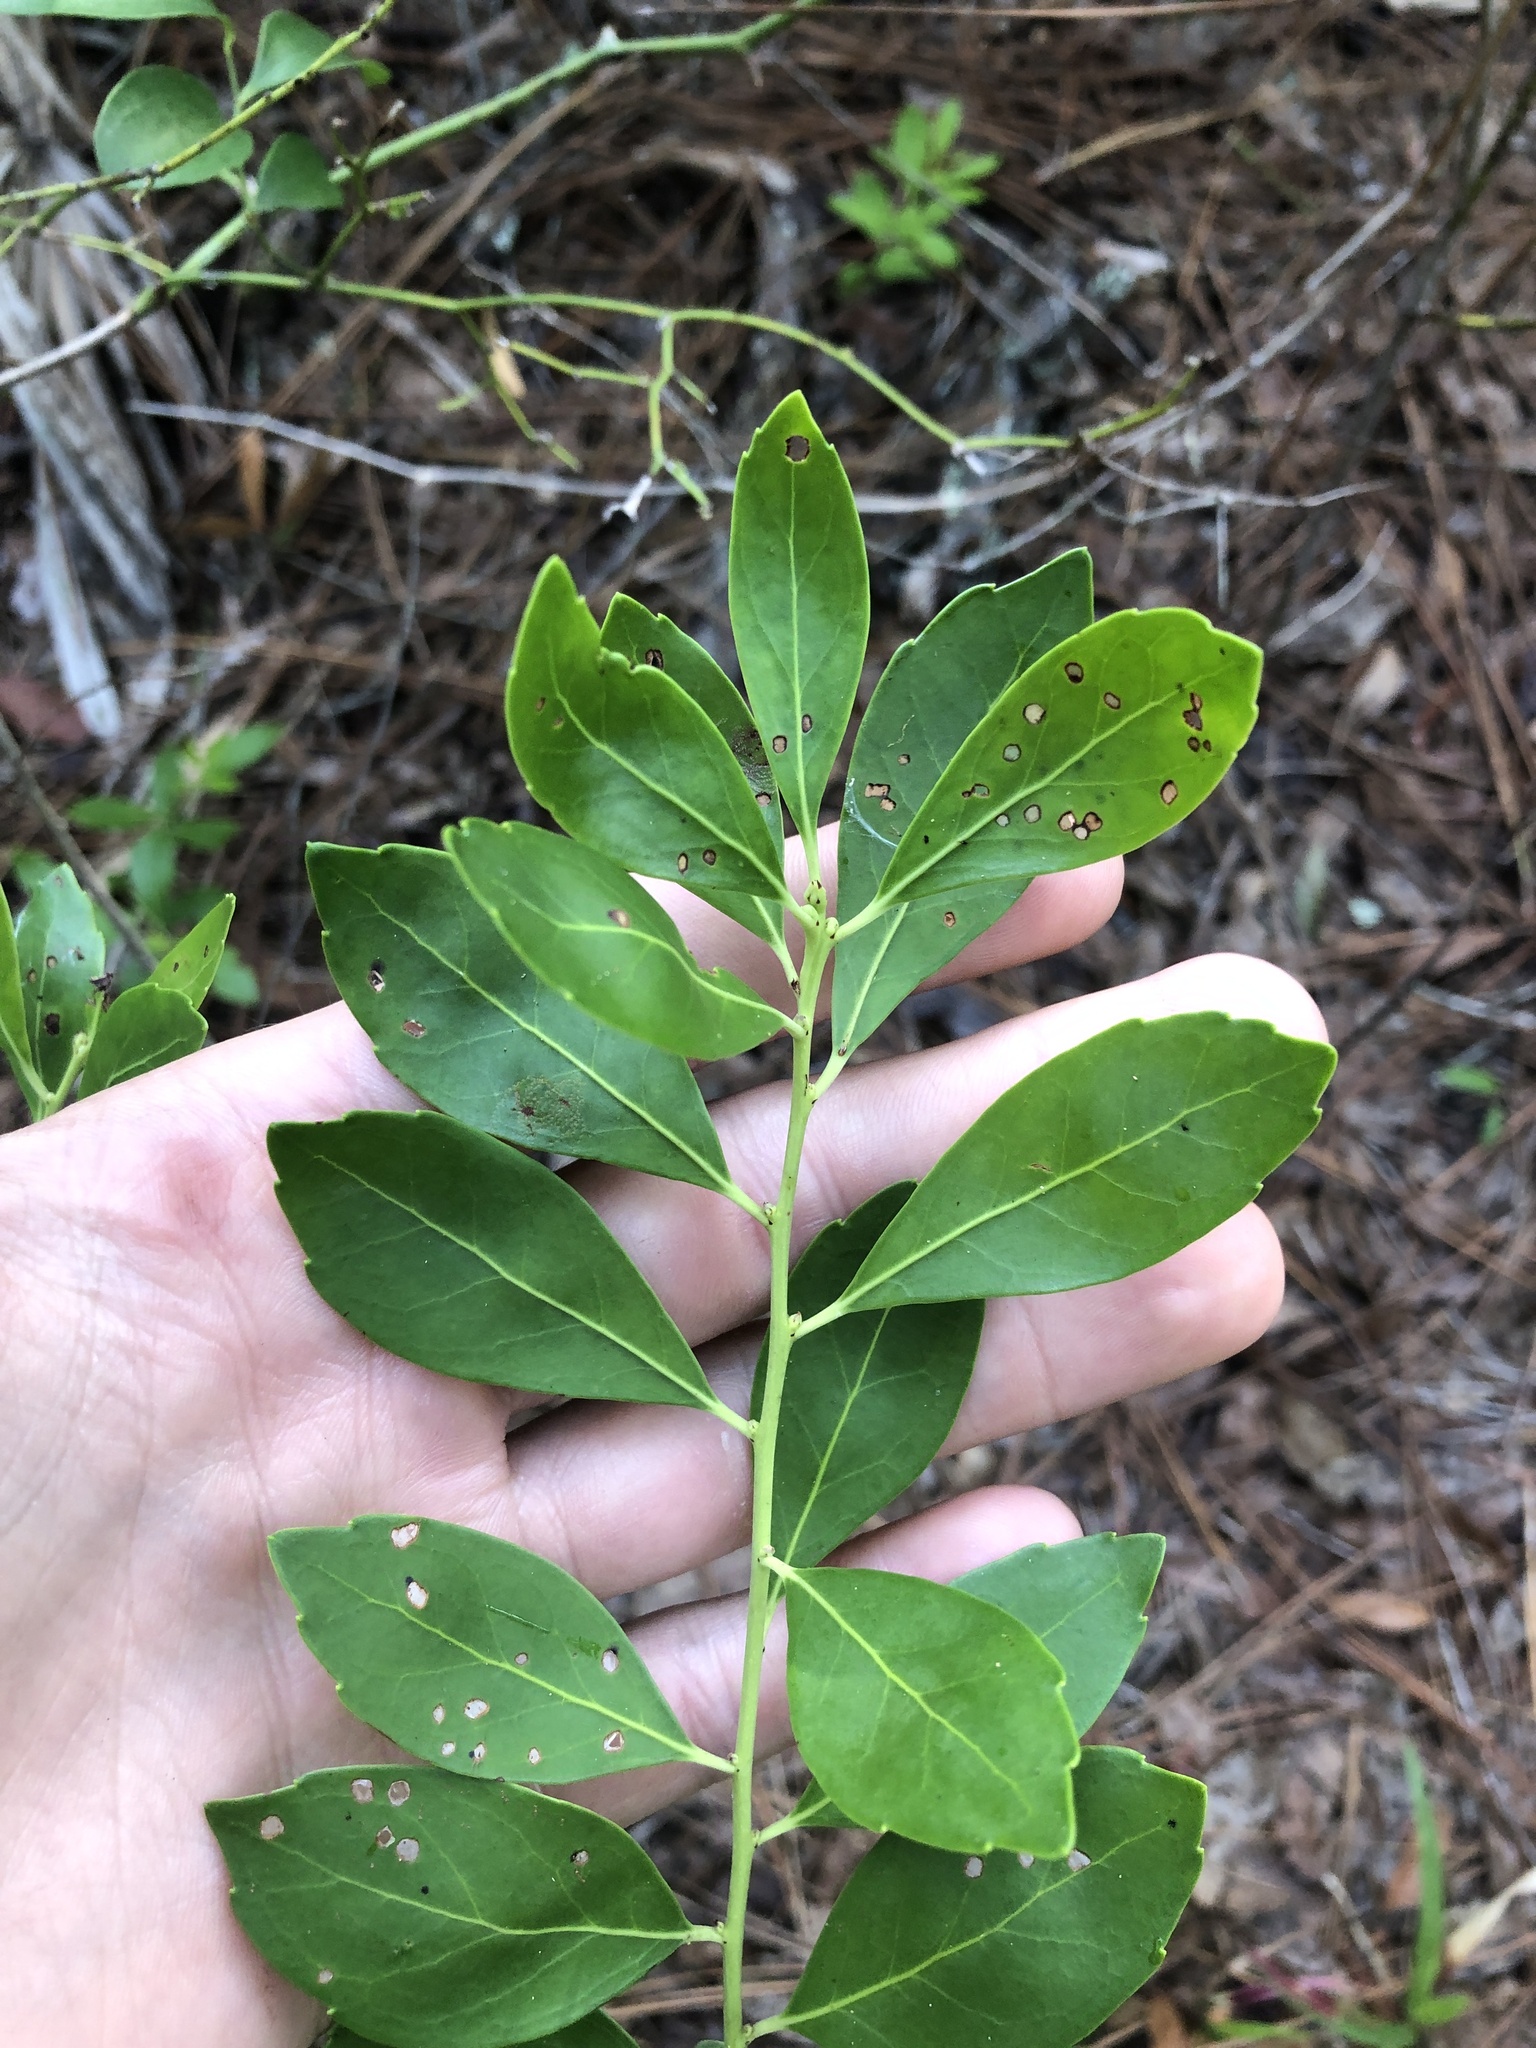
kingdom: Plantae
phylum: Tracheophyta
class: Magnoliopsida
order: Aquifoliales
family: Aquifoliaceae
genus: Ilex
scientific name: Ilex glabra
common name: Bitter gallberry
